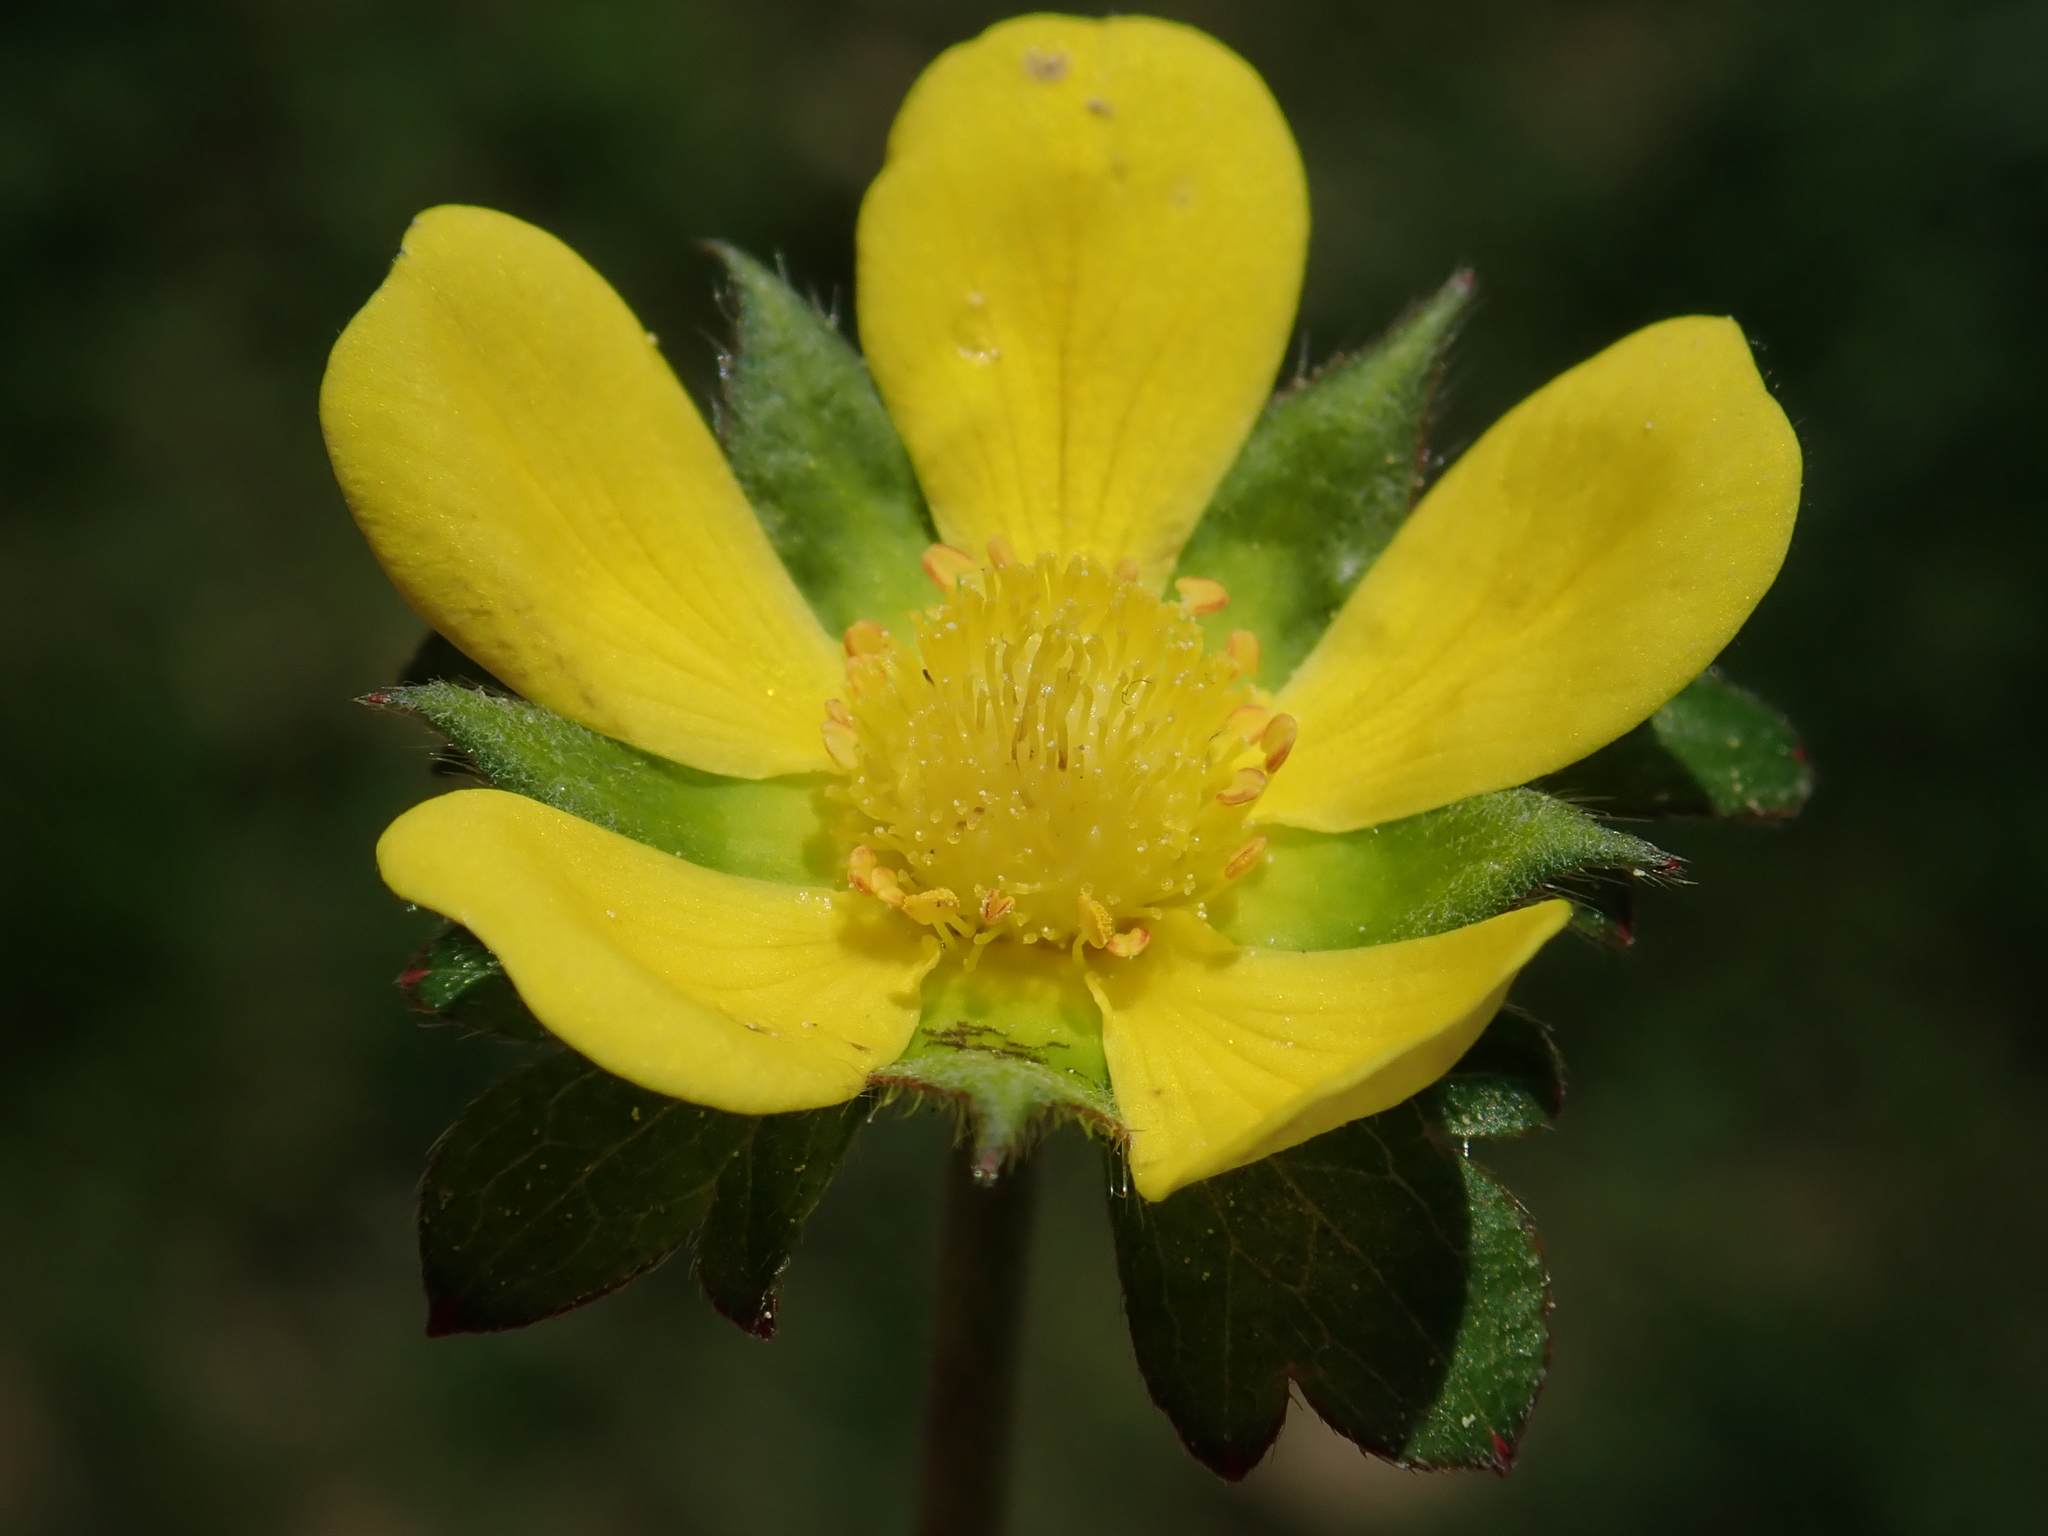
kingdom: Plantae
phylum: Tracheophyta
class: Magnoliopsida
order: Rosales
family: Rosaceae
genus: Potentilla
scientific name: Potentilla indica
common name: Yellow-flowered strawberry
